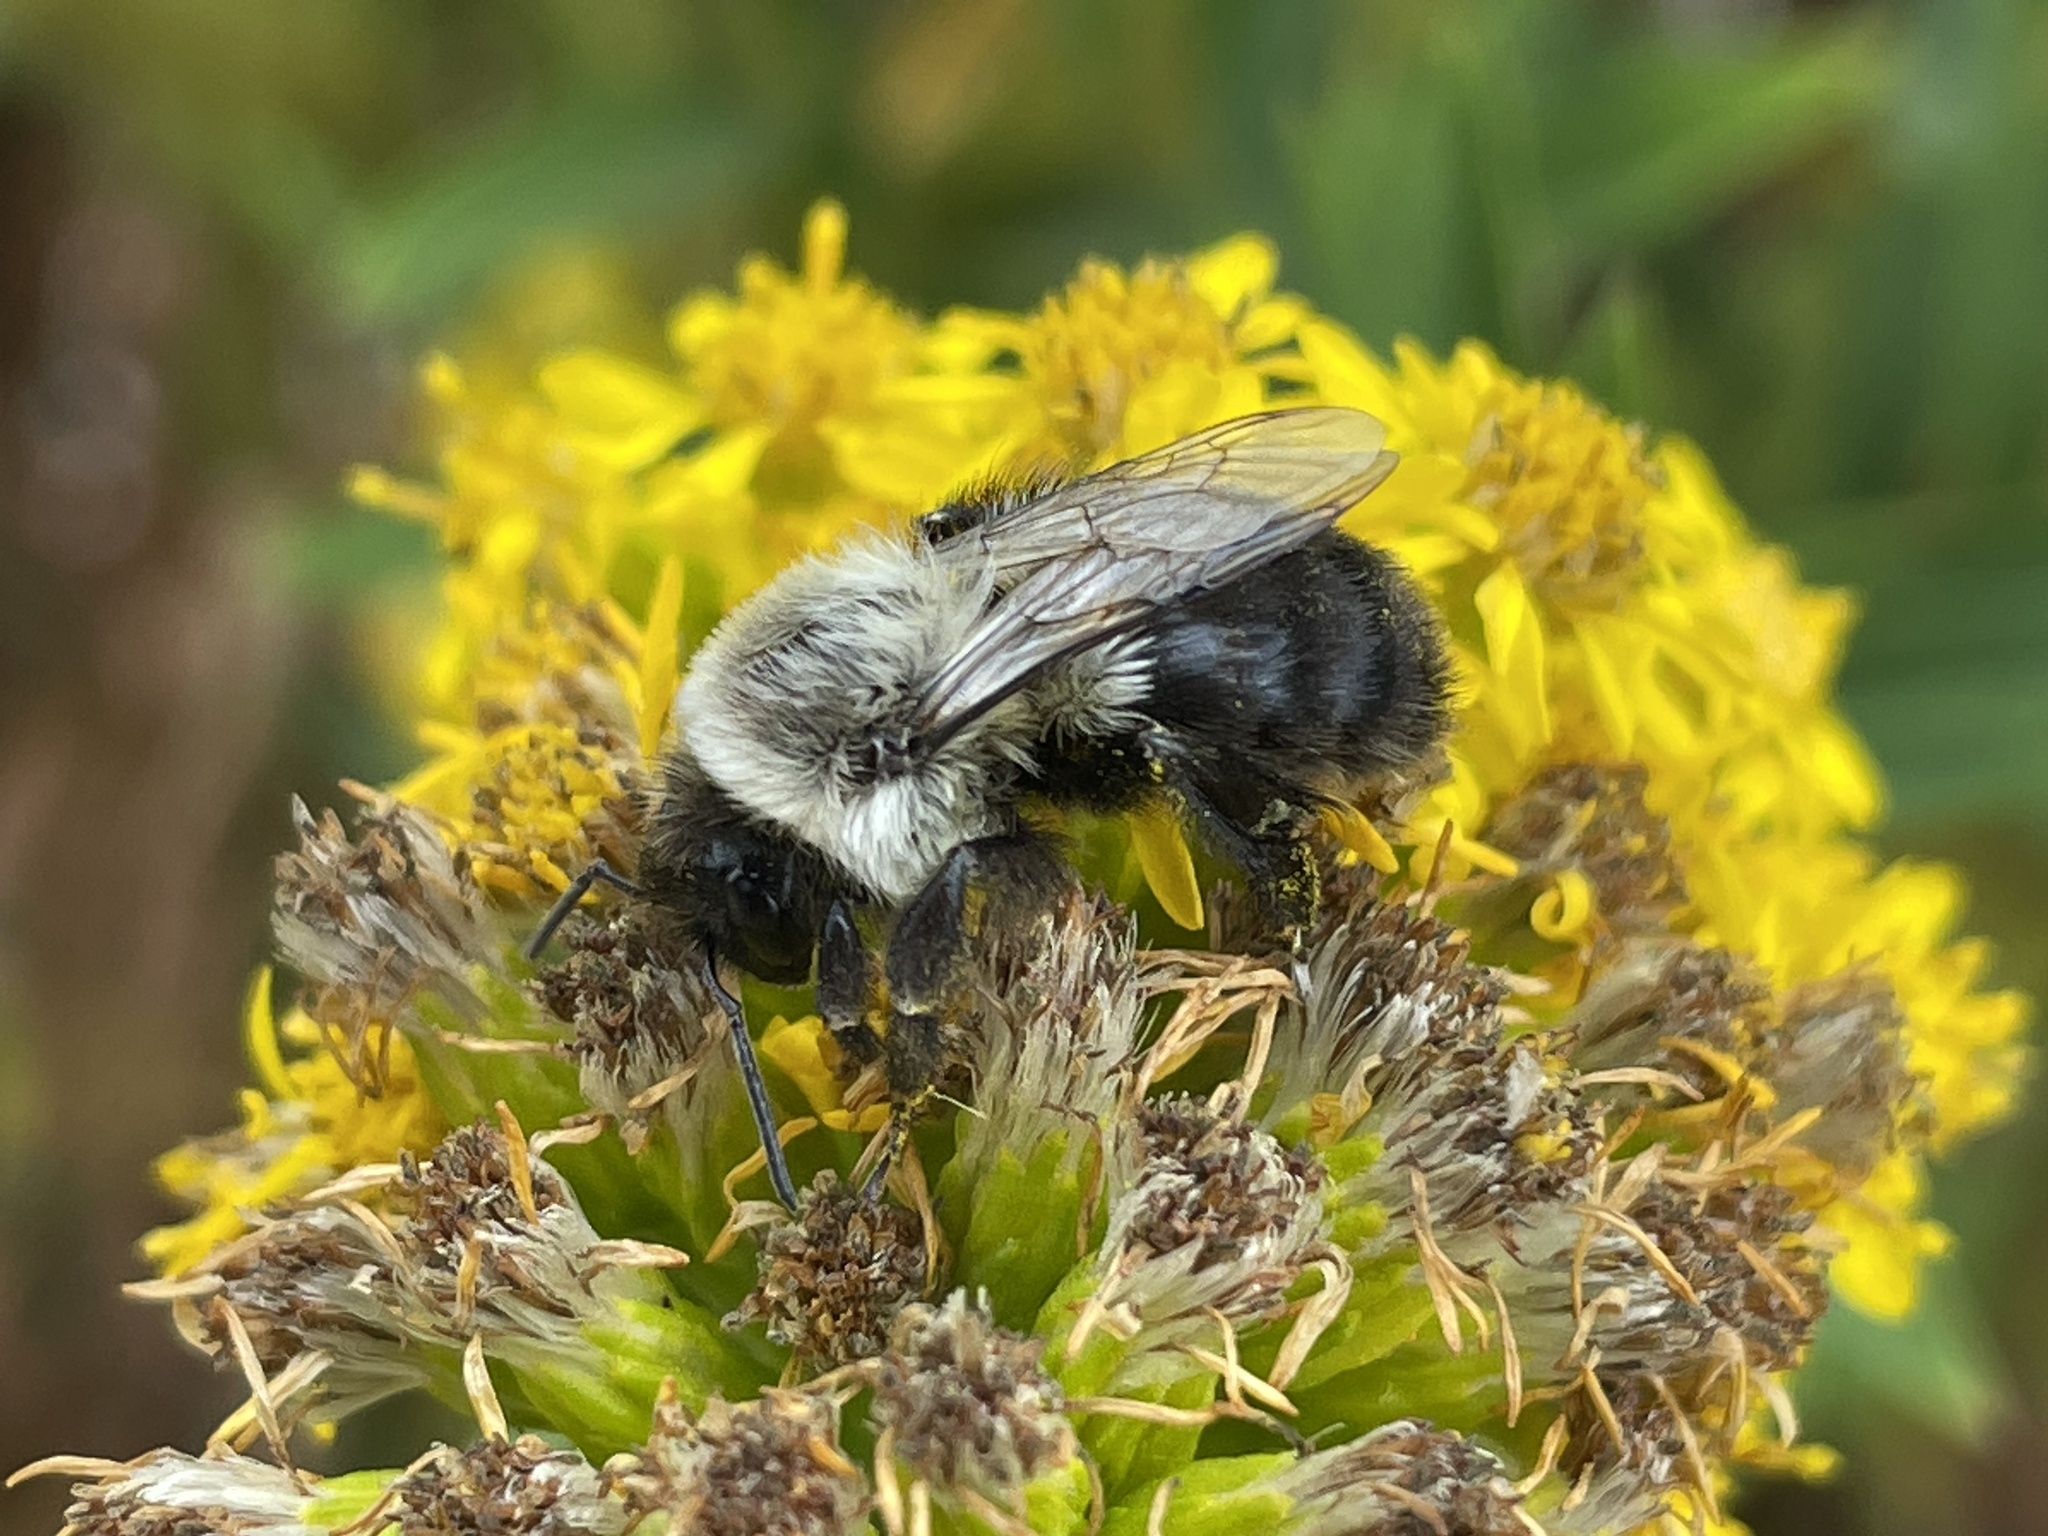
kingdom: Animalia
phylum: Arthropoda
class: Insecta
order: Hymenoptera
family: Apidae
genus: Bombus
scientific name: Bombus impatiens
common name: Common eastern bumble bee
